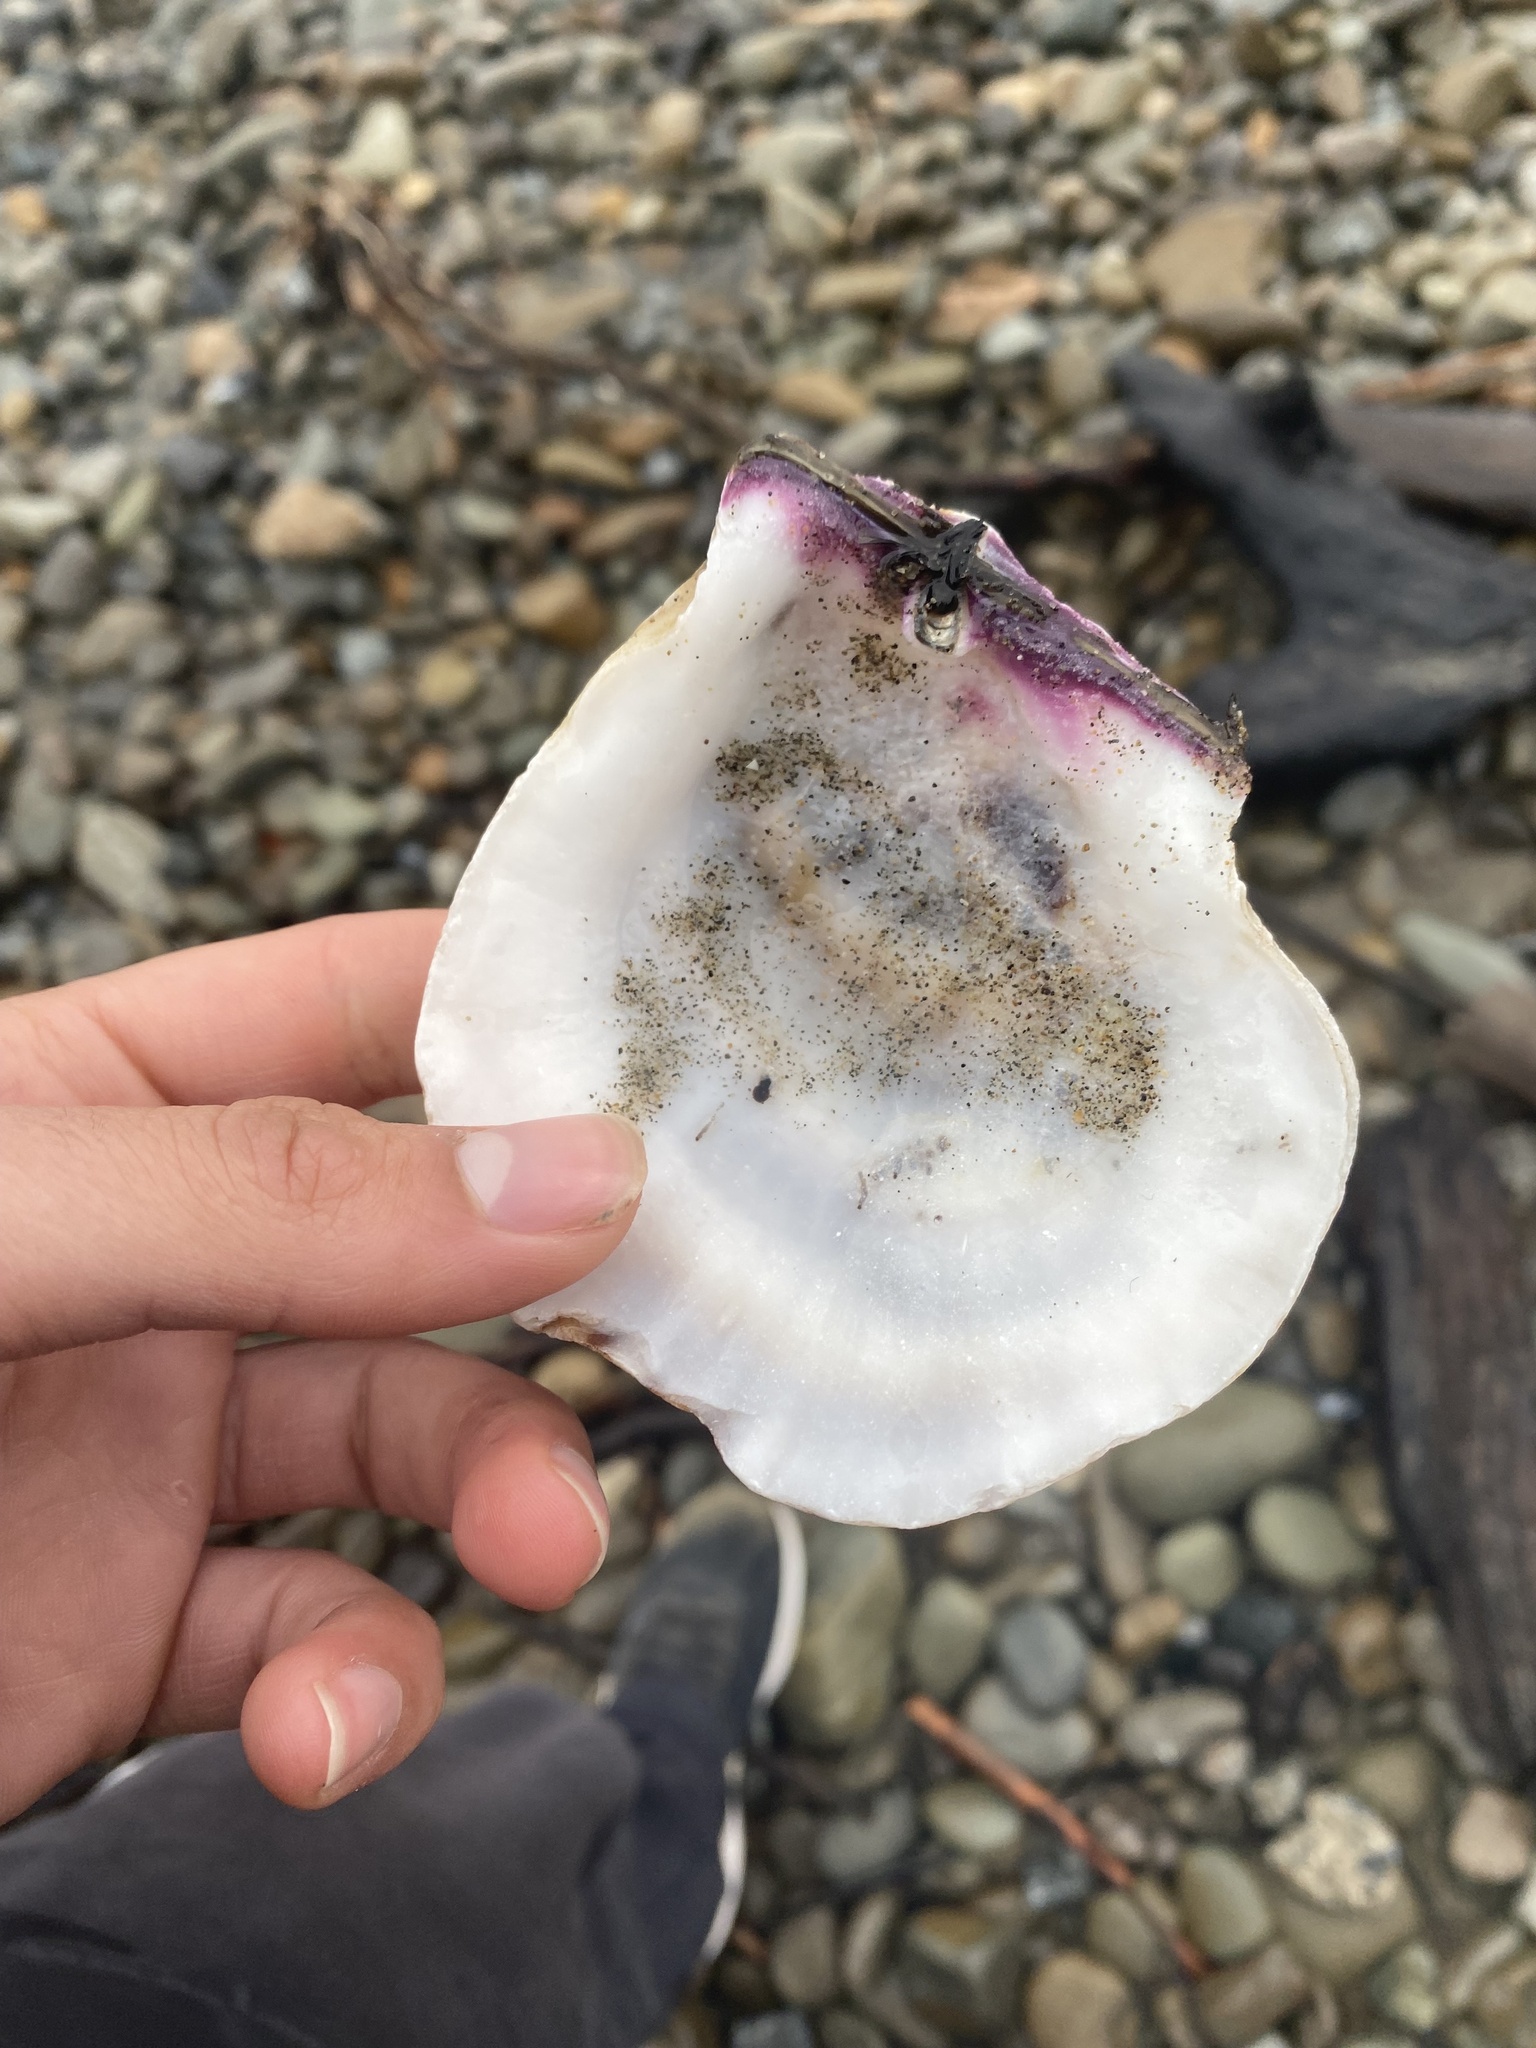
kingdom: Animalia
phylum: Mollusca
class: Bivalvia
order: Pectinida
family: Pectinidae
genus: Crassadoma
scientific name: Crassadoma gigantea
